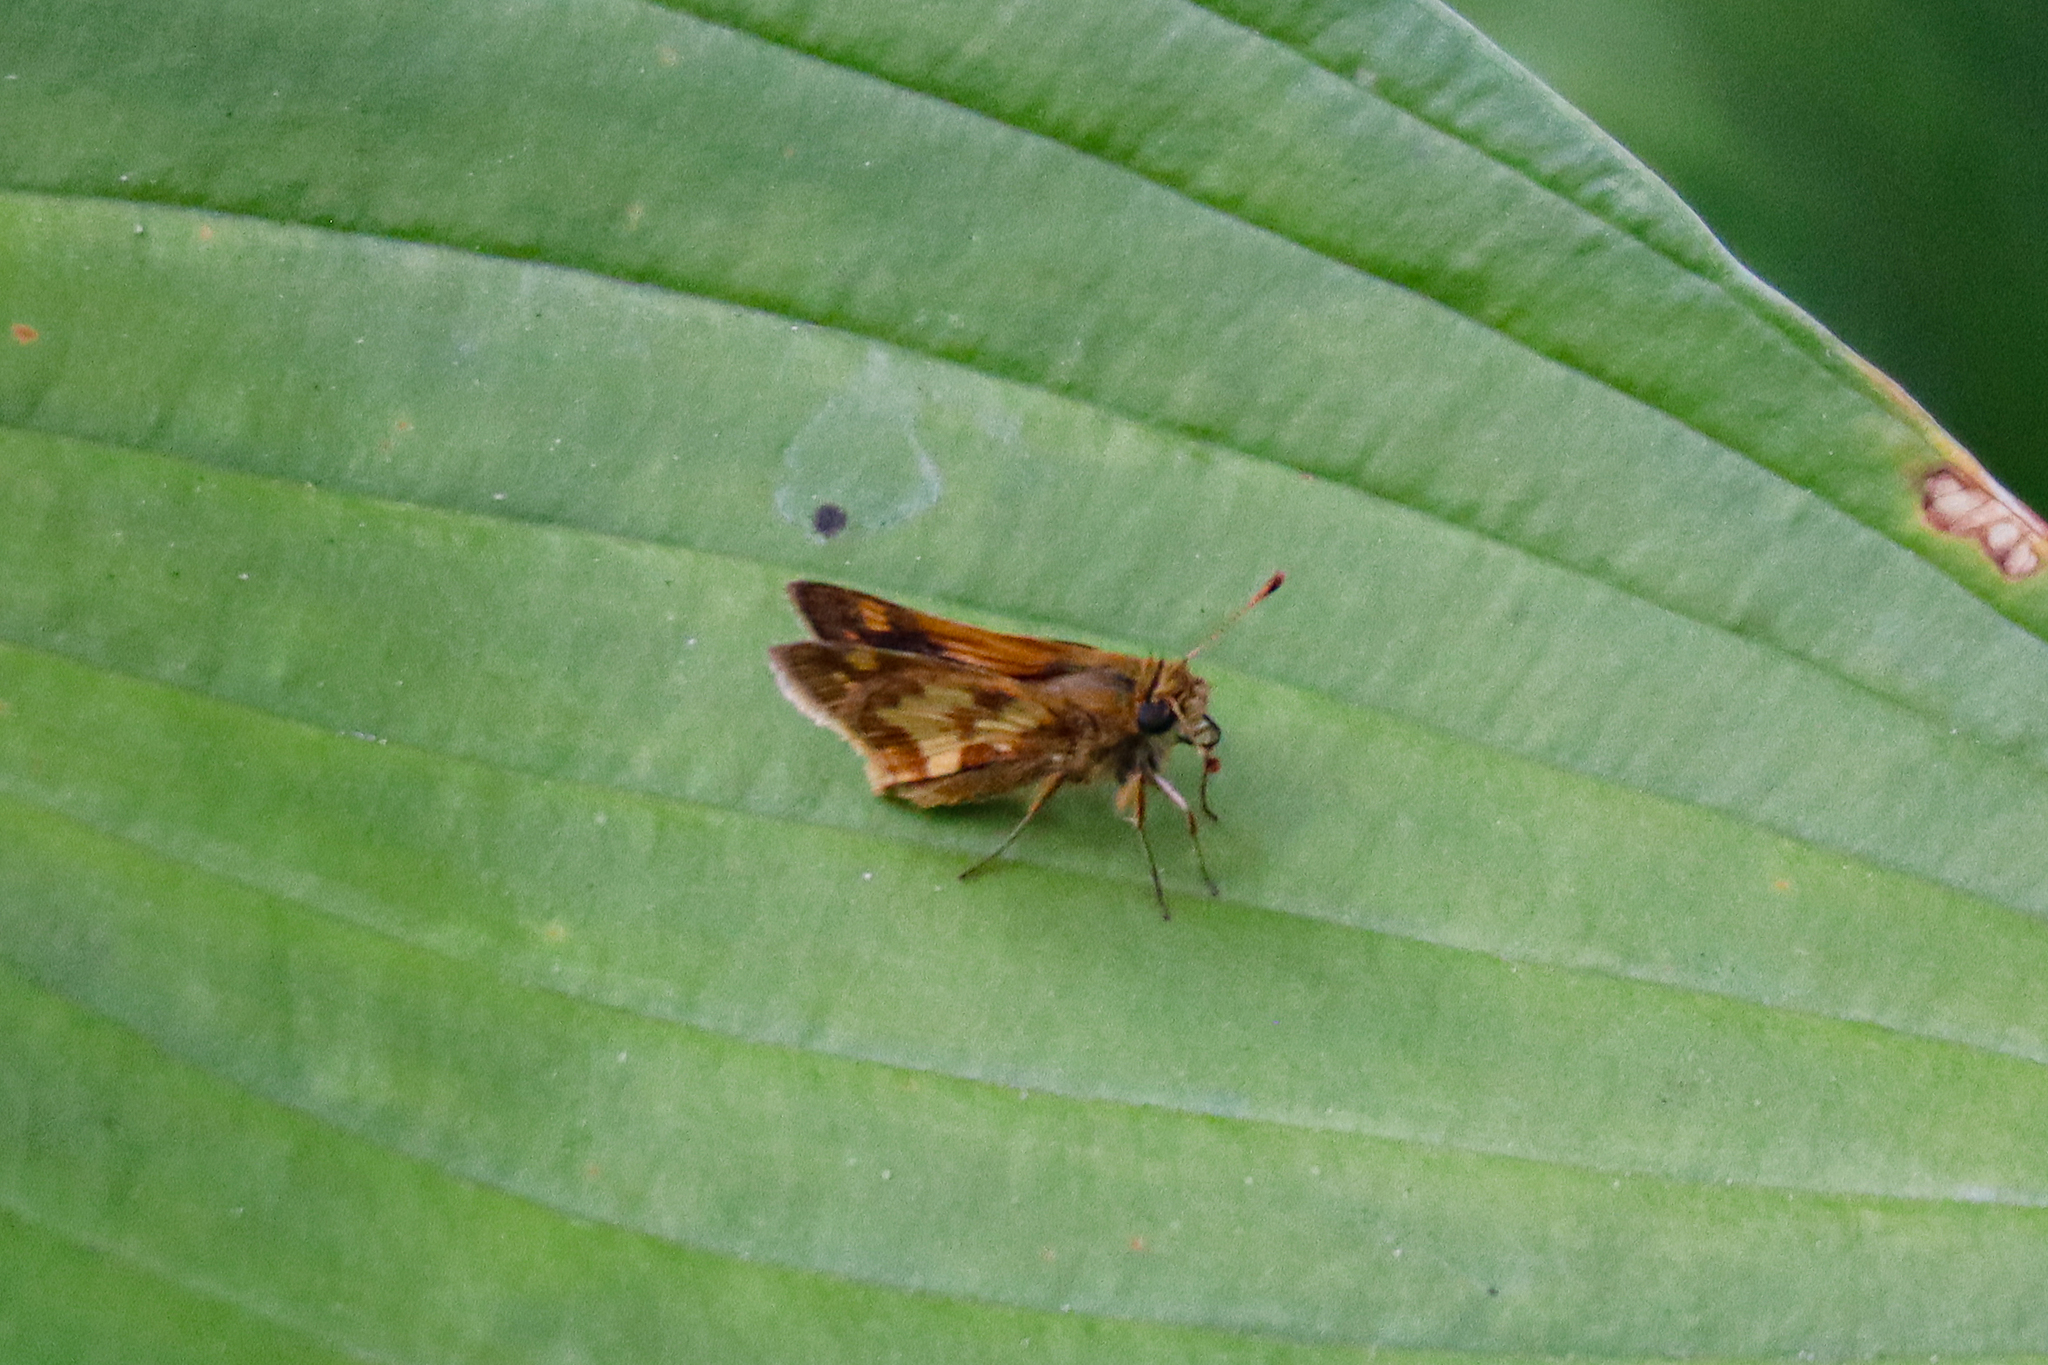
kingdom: Animalia
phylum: Arthropoda
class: Insecta
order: Lepidoptera
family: Hesperiidae
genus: Polites
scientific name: Polites coras
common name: Peck's skipper
